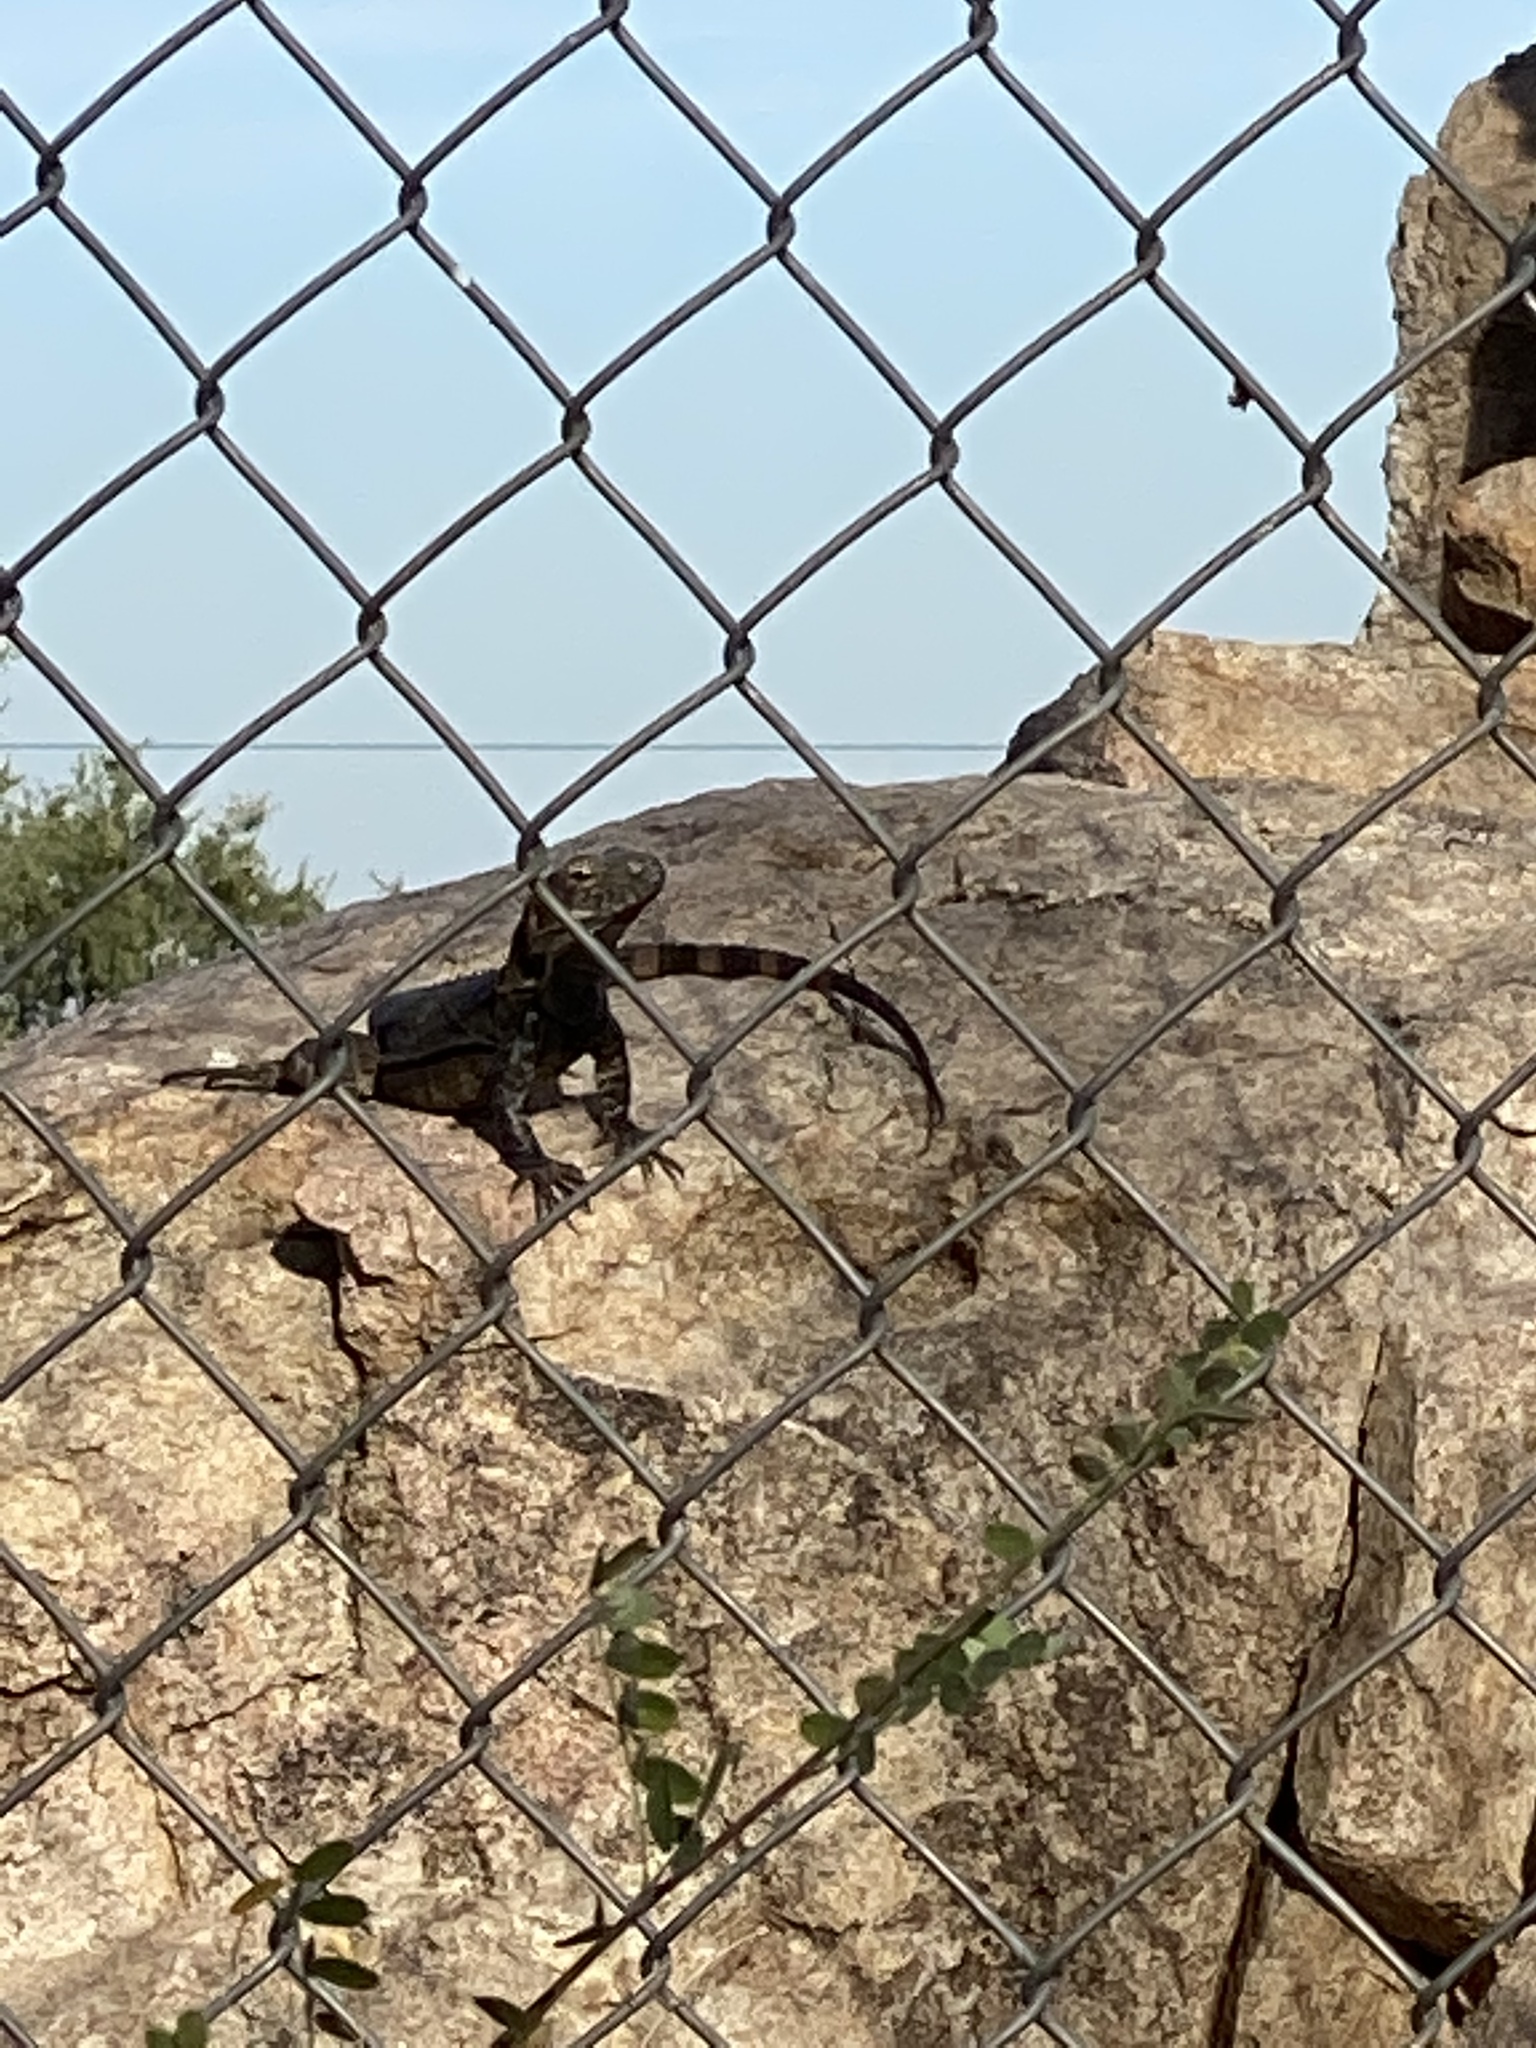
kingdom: Animalia
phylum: Chordata
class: Squamata
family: Iguanidae
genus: Ctenosaura
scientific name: Ctenosaura macrolopha
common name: Cape spinytail iguana
